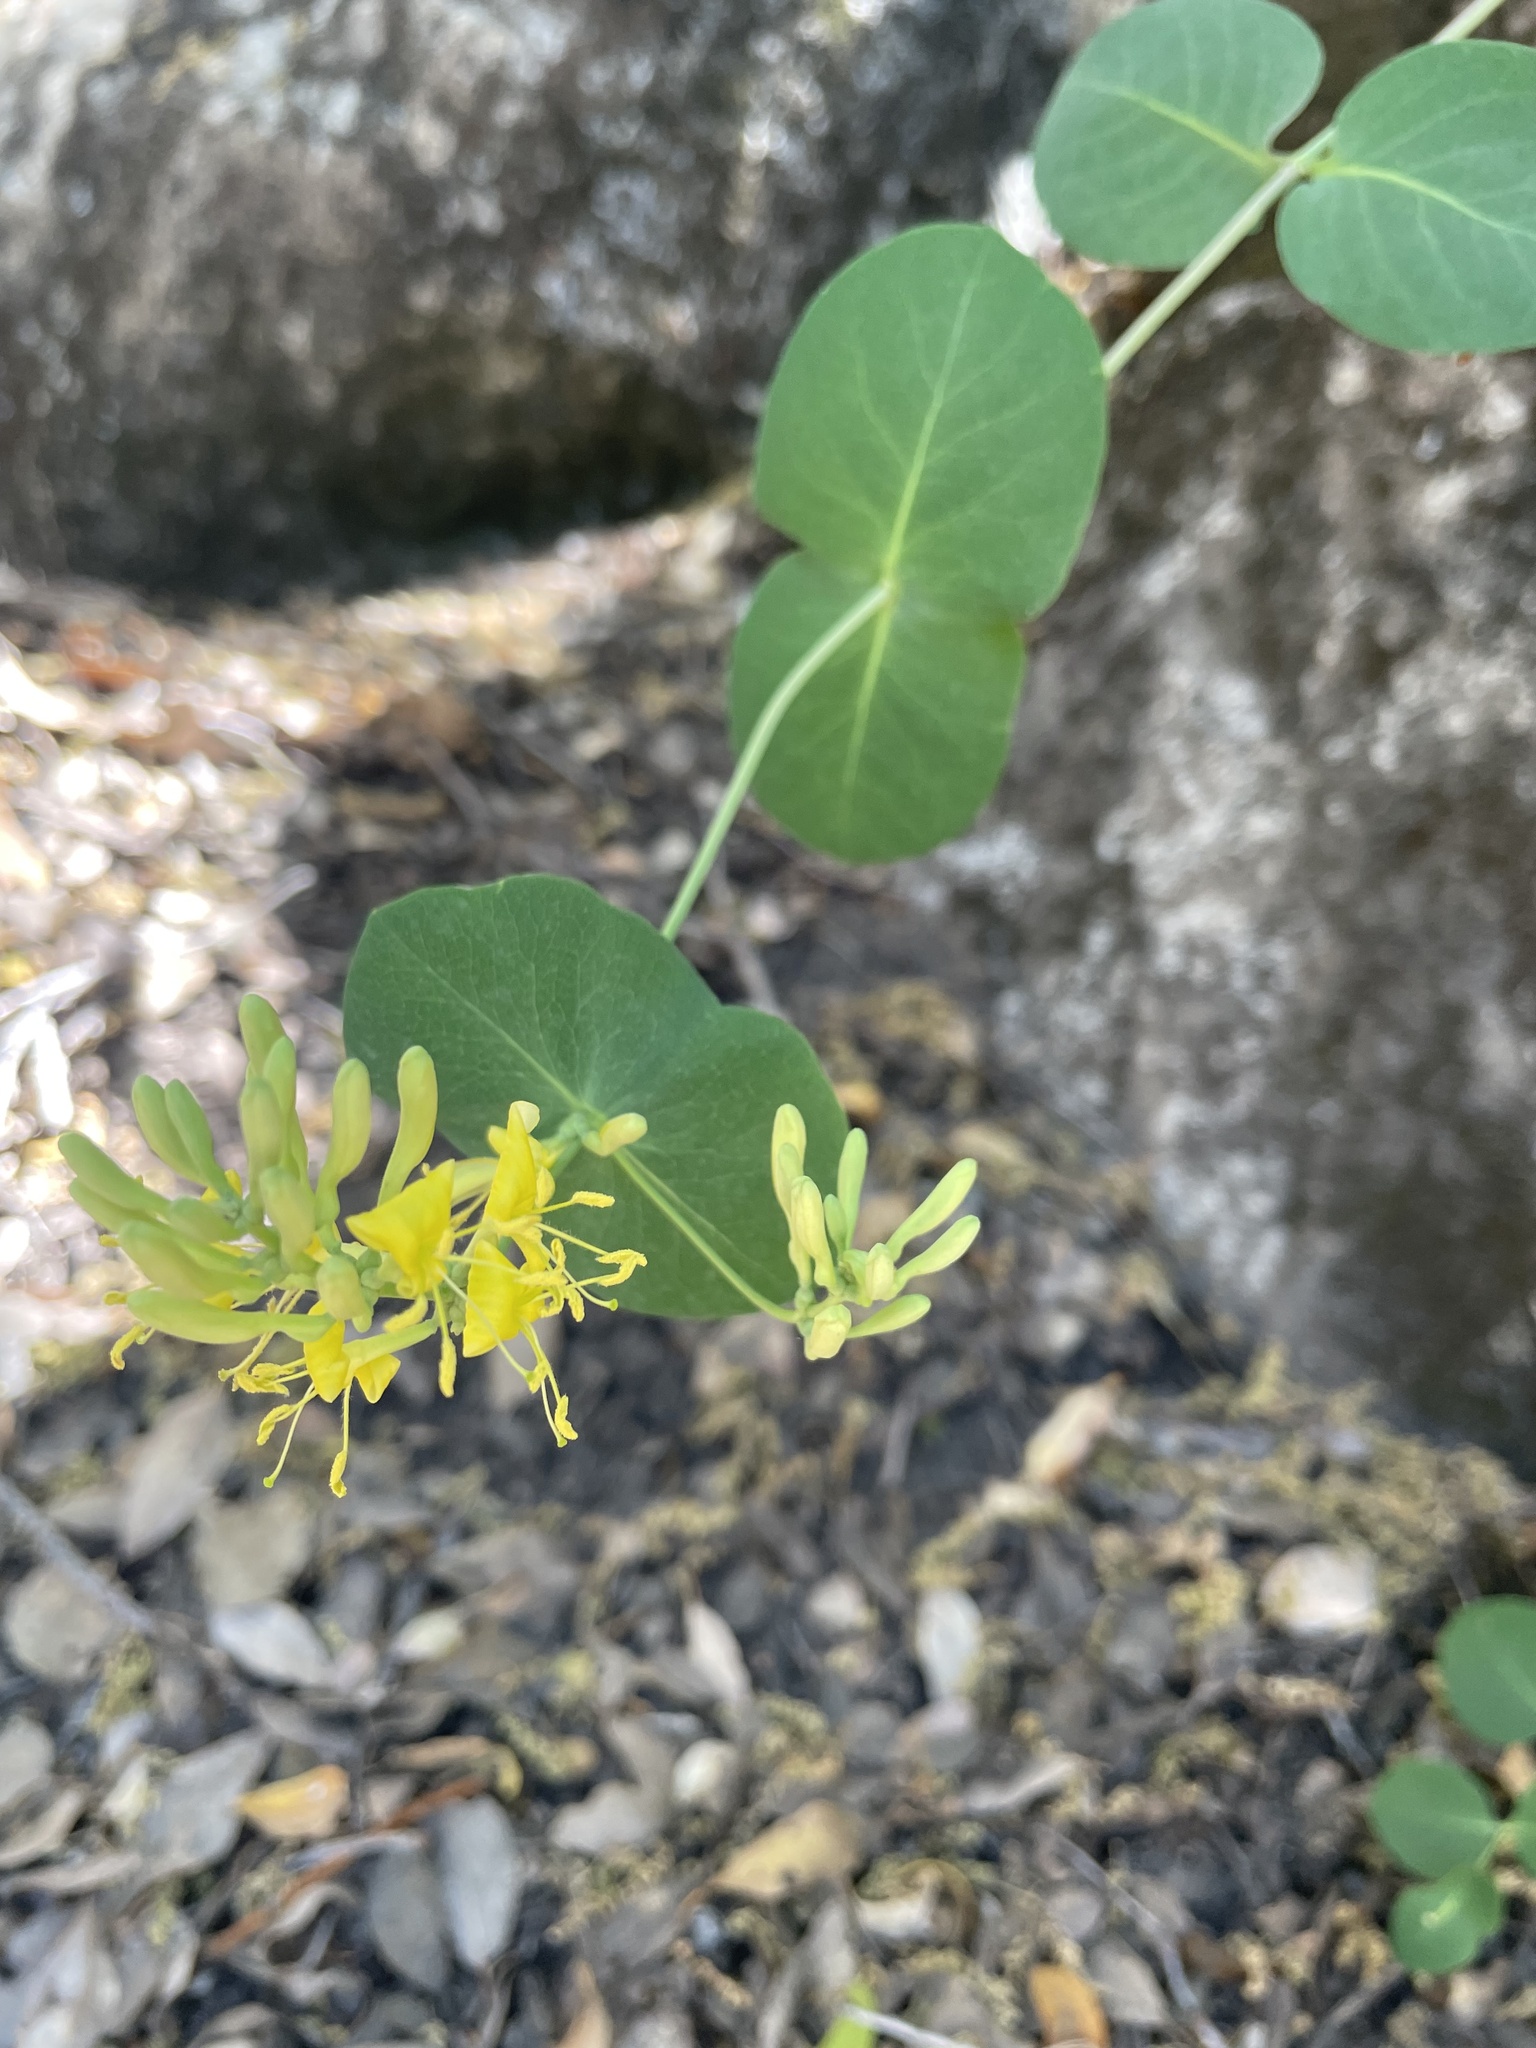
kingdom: Plantae
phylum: Tracheophyta
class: Magnoliopsida
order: Dipsacales
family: Caprifoliaceae
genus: Lonicera
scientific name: Lonicera interrupta
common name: Chaparral honeysuckle
